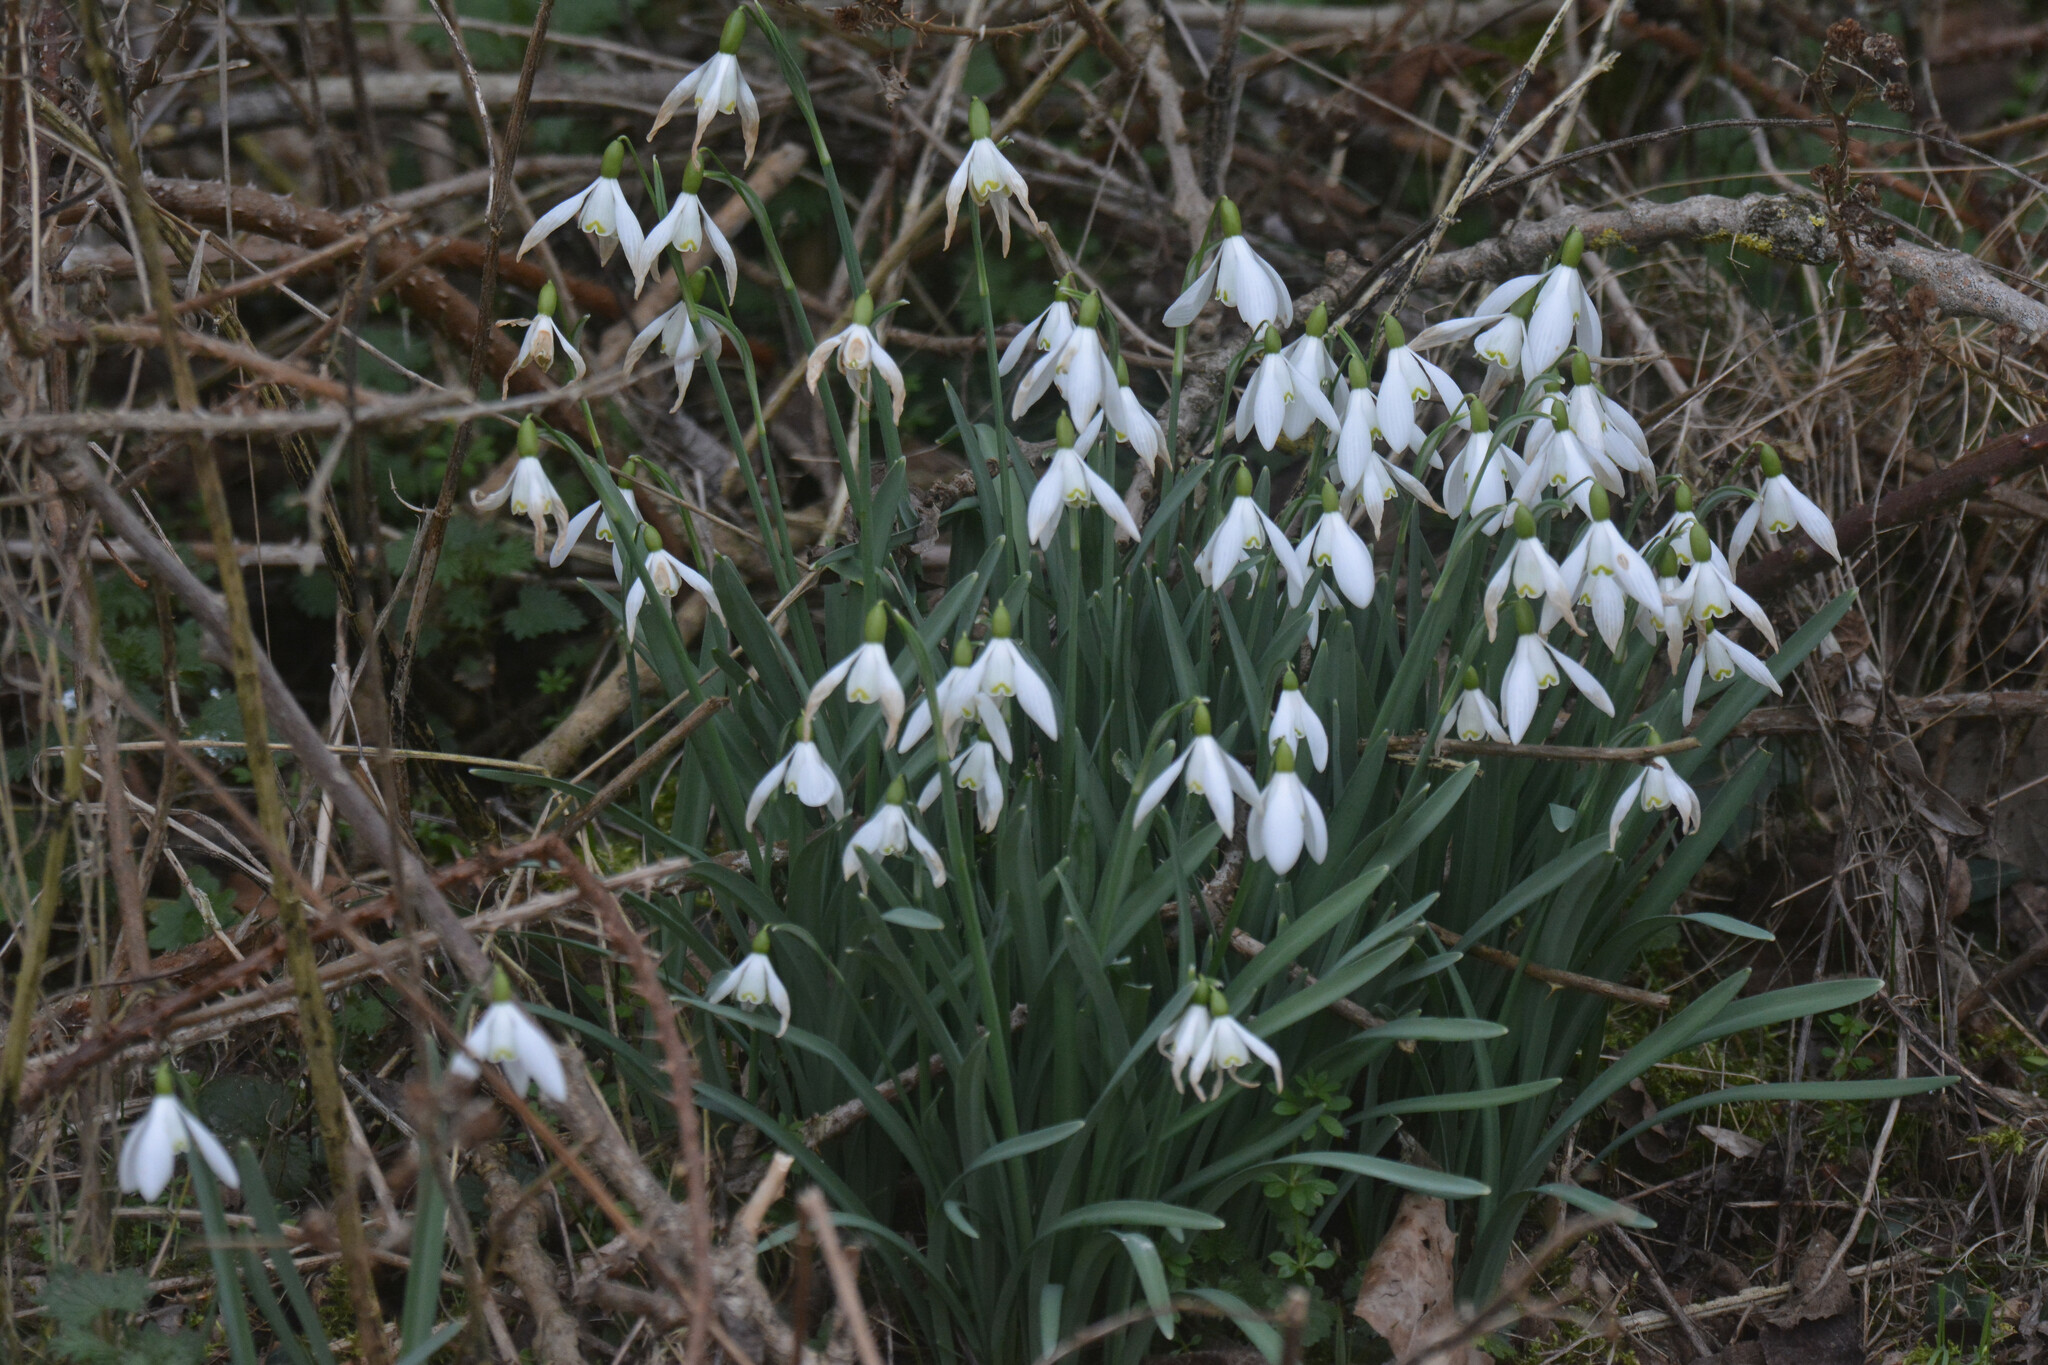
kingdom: Plantae
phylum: Tracheophyta
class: Liliopsida
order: Asparagales
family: Amaryllidaceae
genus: Galanthus
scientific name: Galanthus nivalis
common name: Snowdrop
